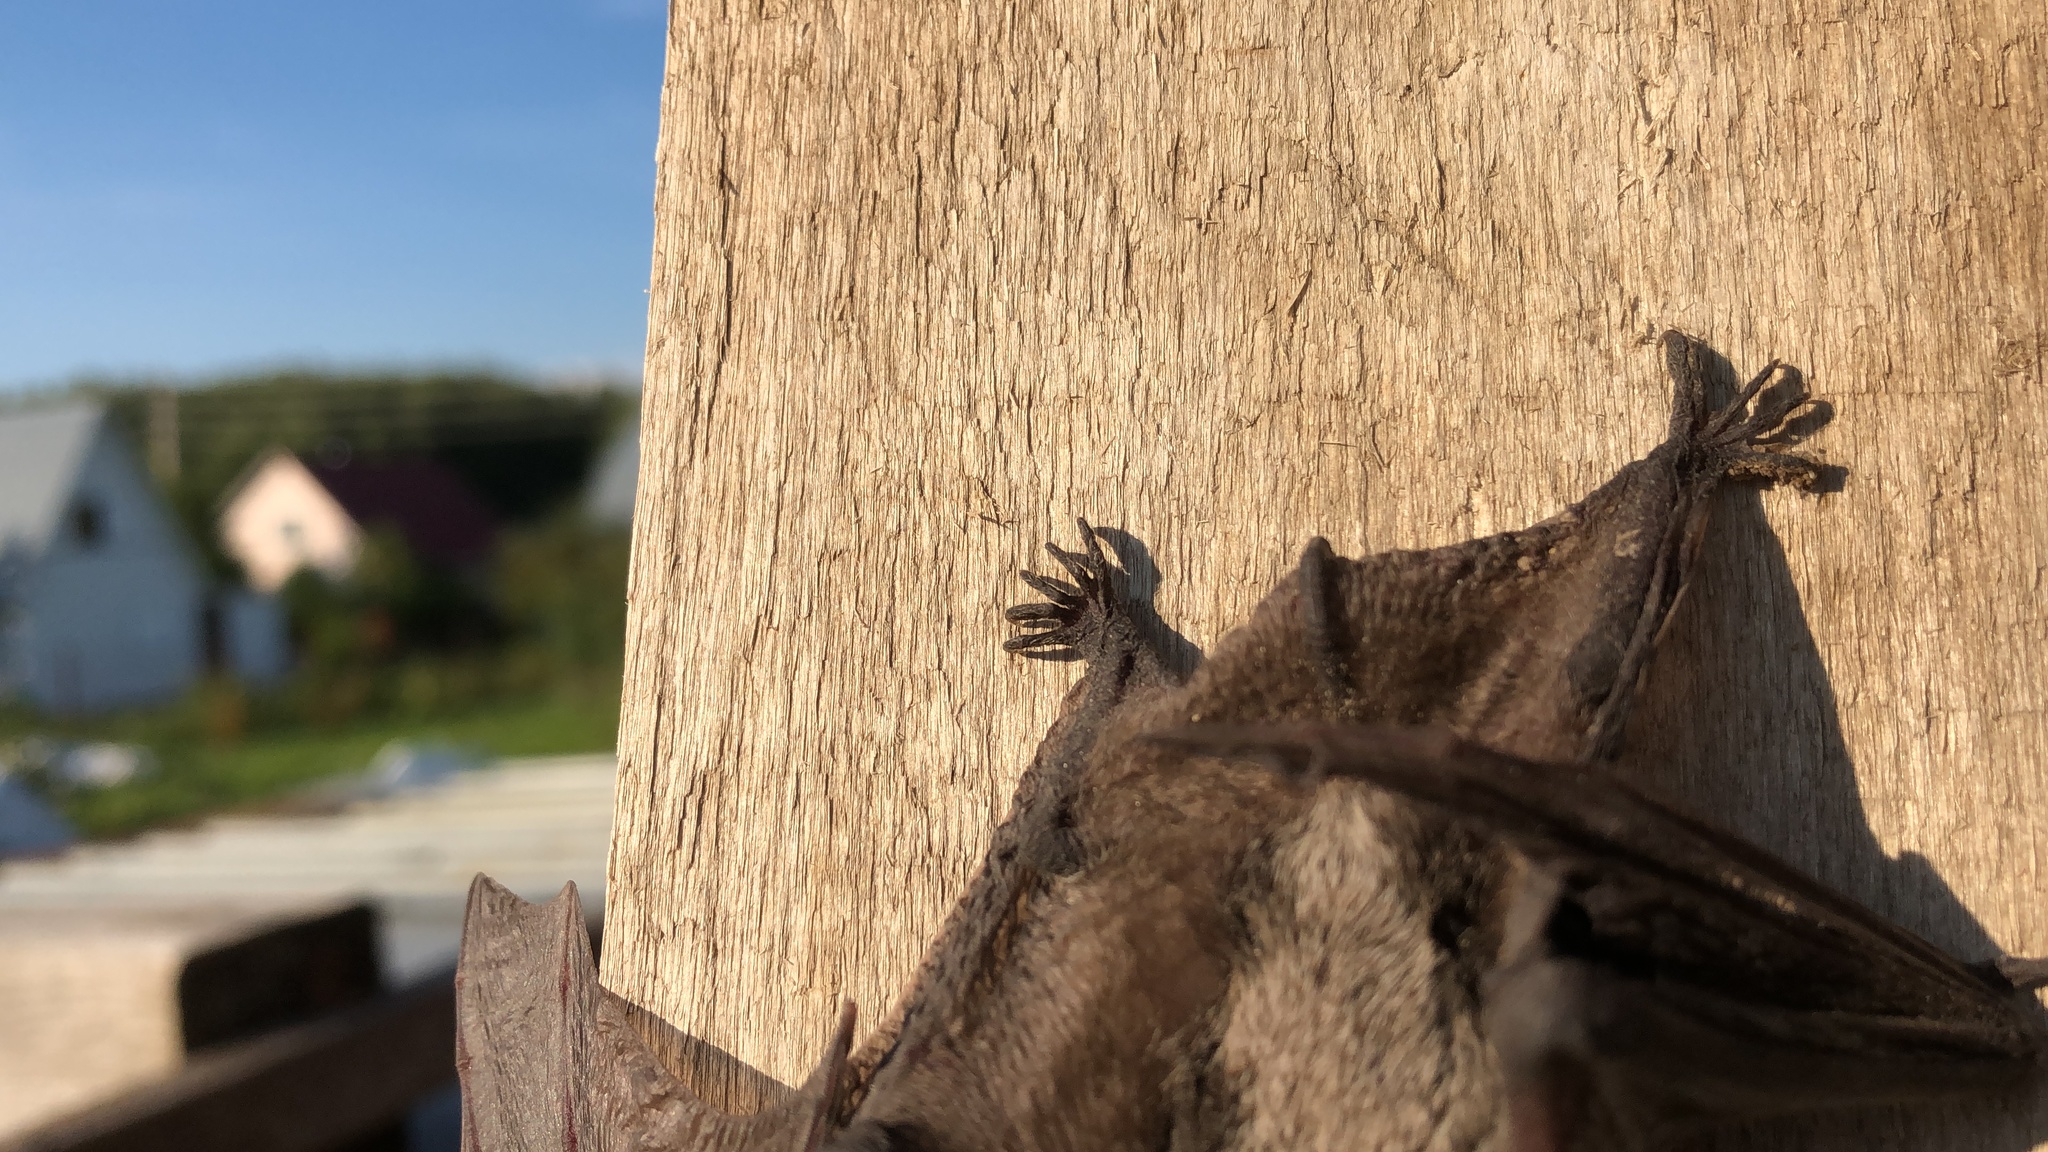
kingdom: Animalia
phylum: Chordata
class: Mammalia
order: Chiroptera
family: Vespertilionidae
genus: Vespertilio
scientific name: Vespertilio murinus
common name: Particolored bat
